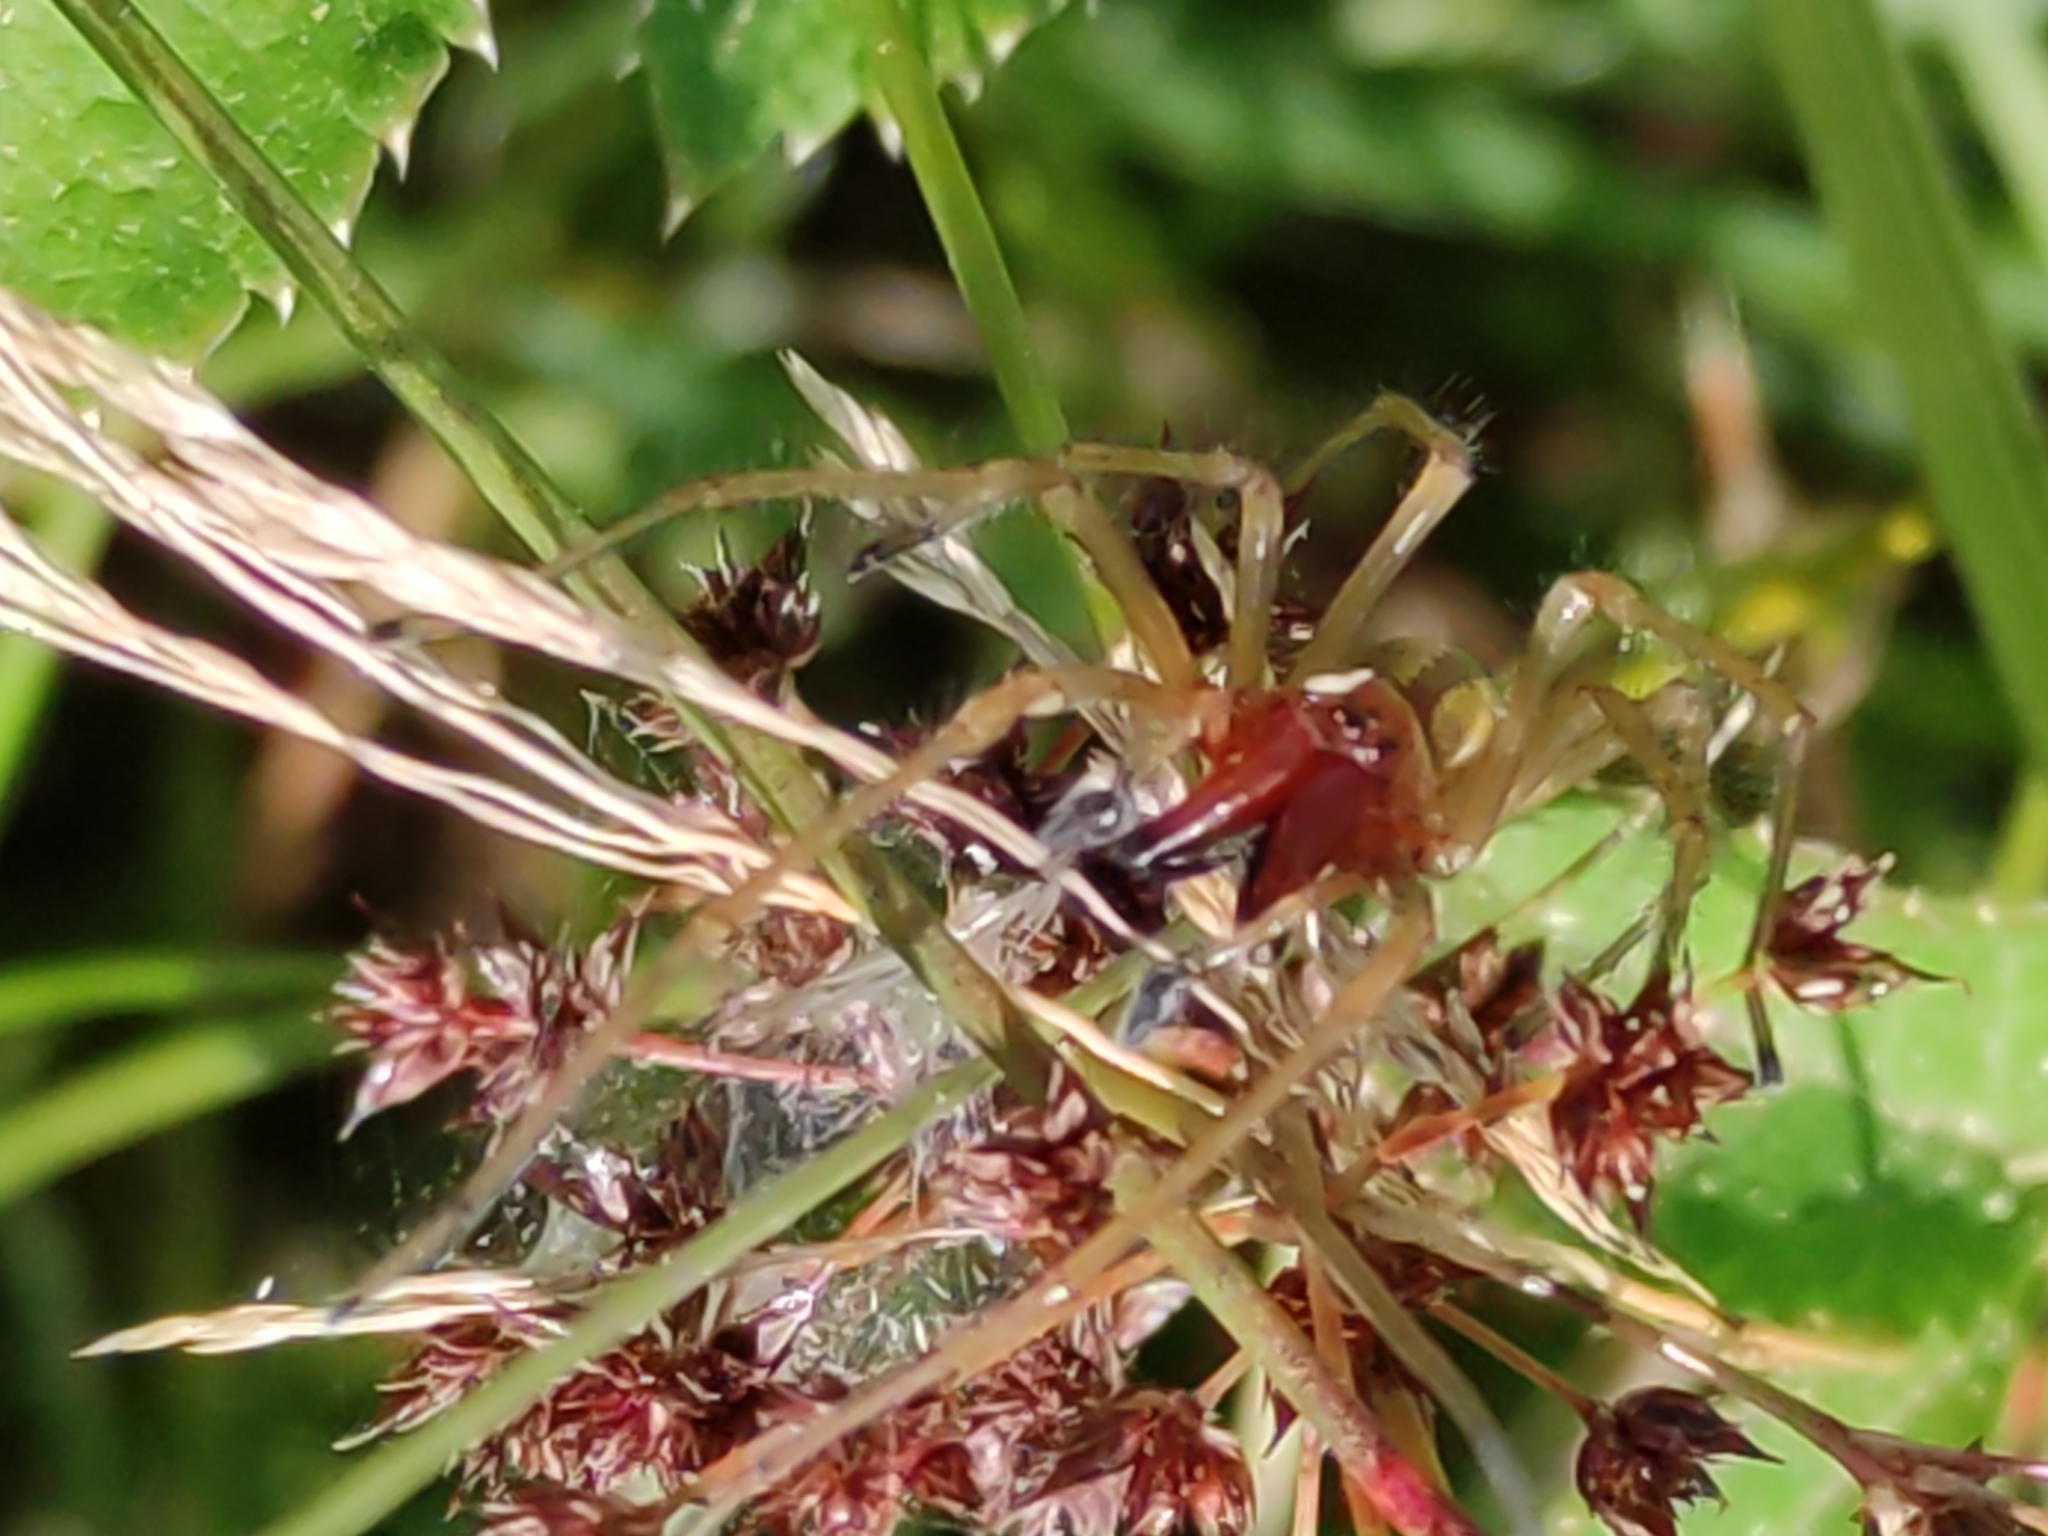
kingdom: Animalia
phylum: Arthropoda
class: Arachnida
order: Araneae
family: Cheiracanthiidae
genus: Cheiracanthium
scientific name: Cheiracanthium punctorium
